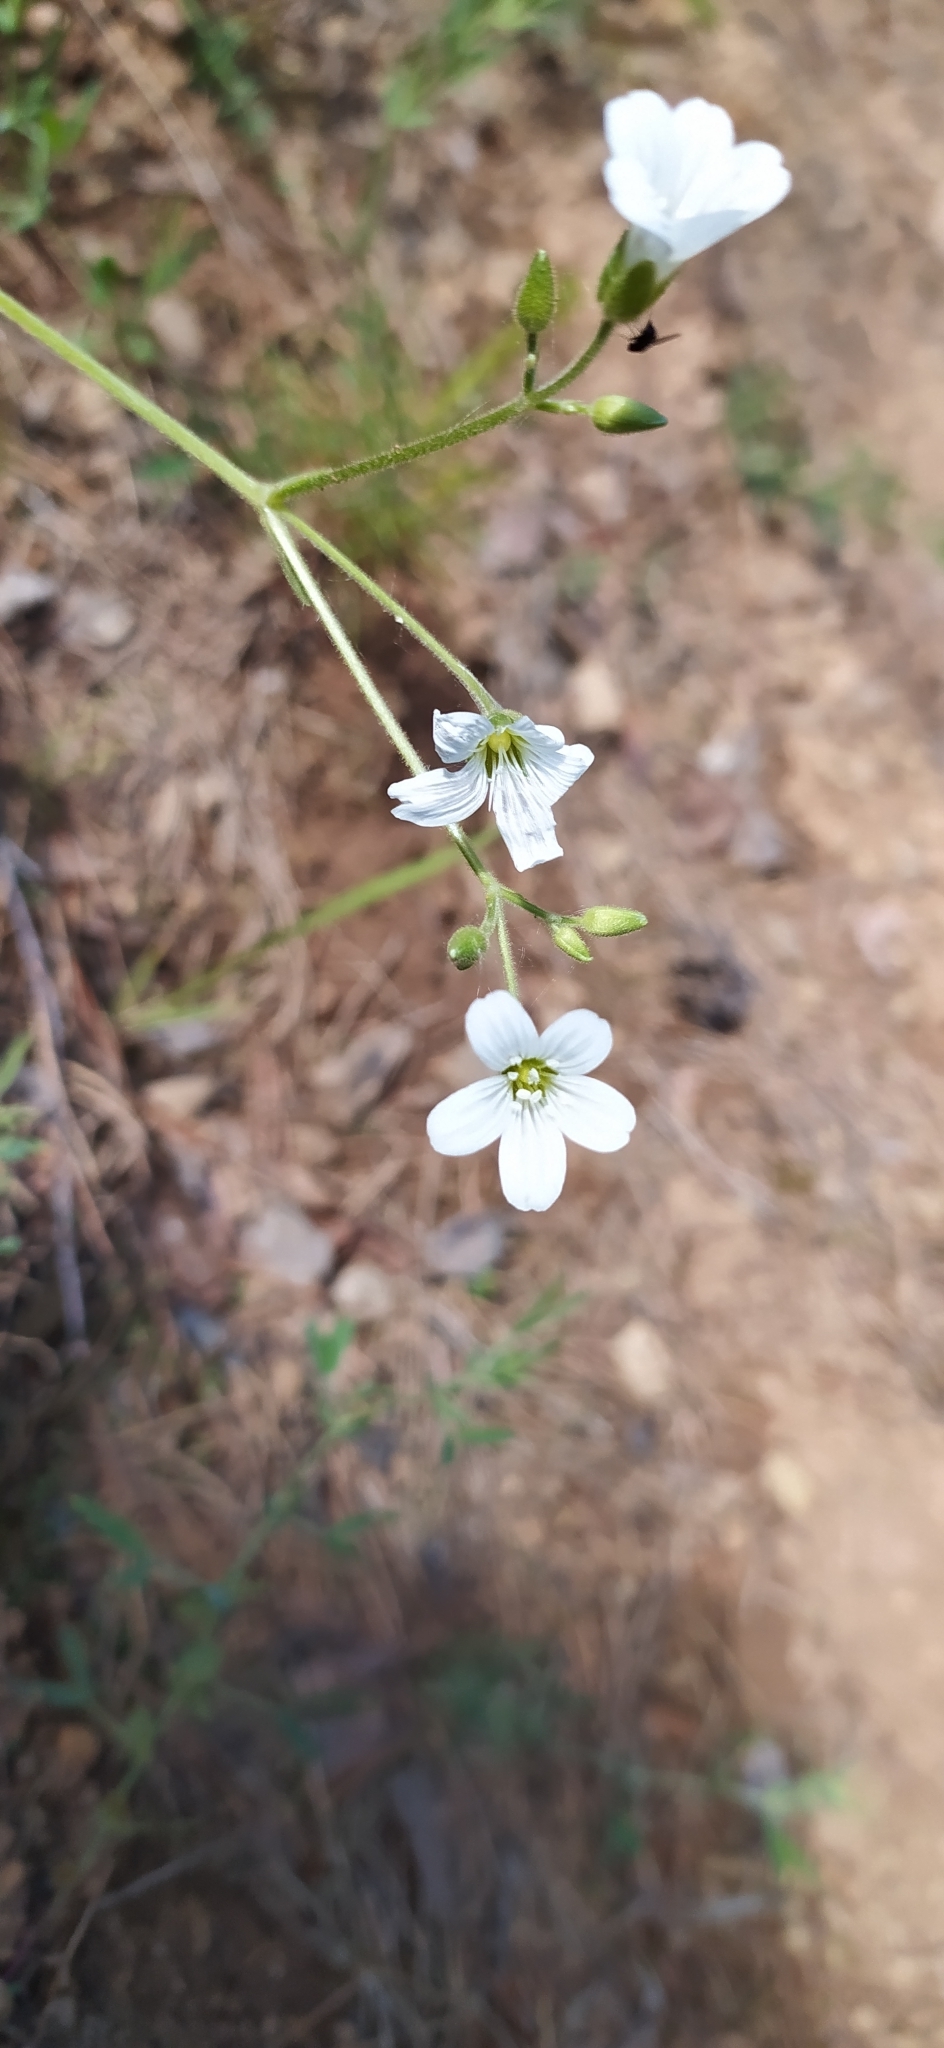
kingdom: Plantae
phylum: Tracheophyta
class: Magnoliopsida
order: Caryophyllales
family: Caryophyllaceae
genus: Cerastium
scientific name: Cerastium pauciflorum
